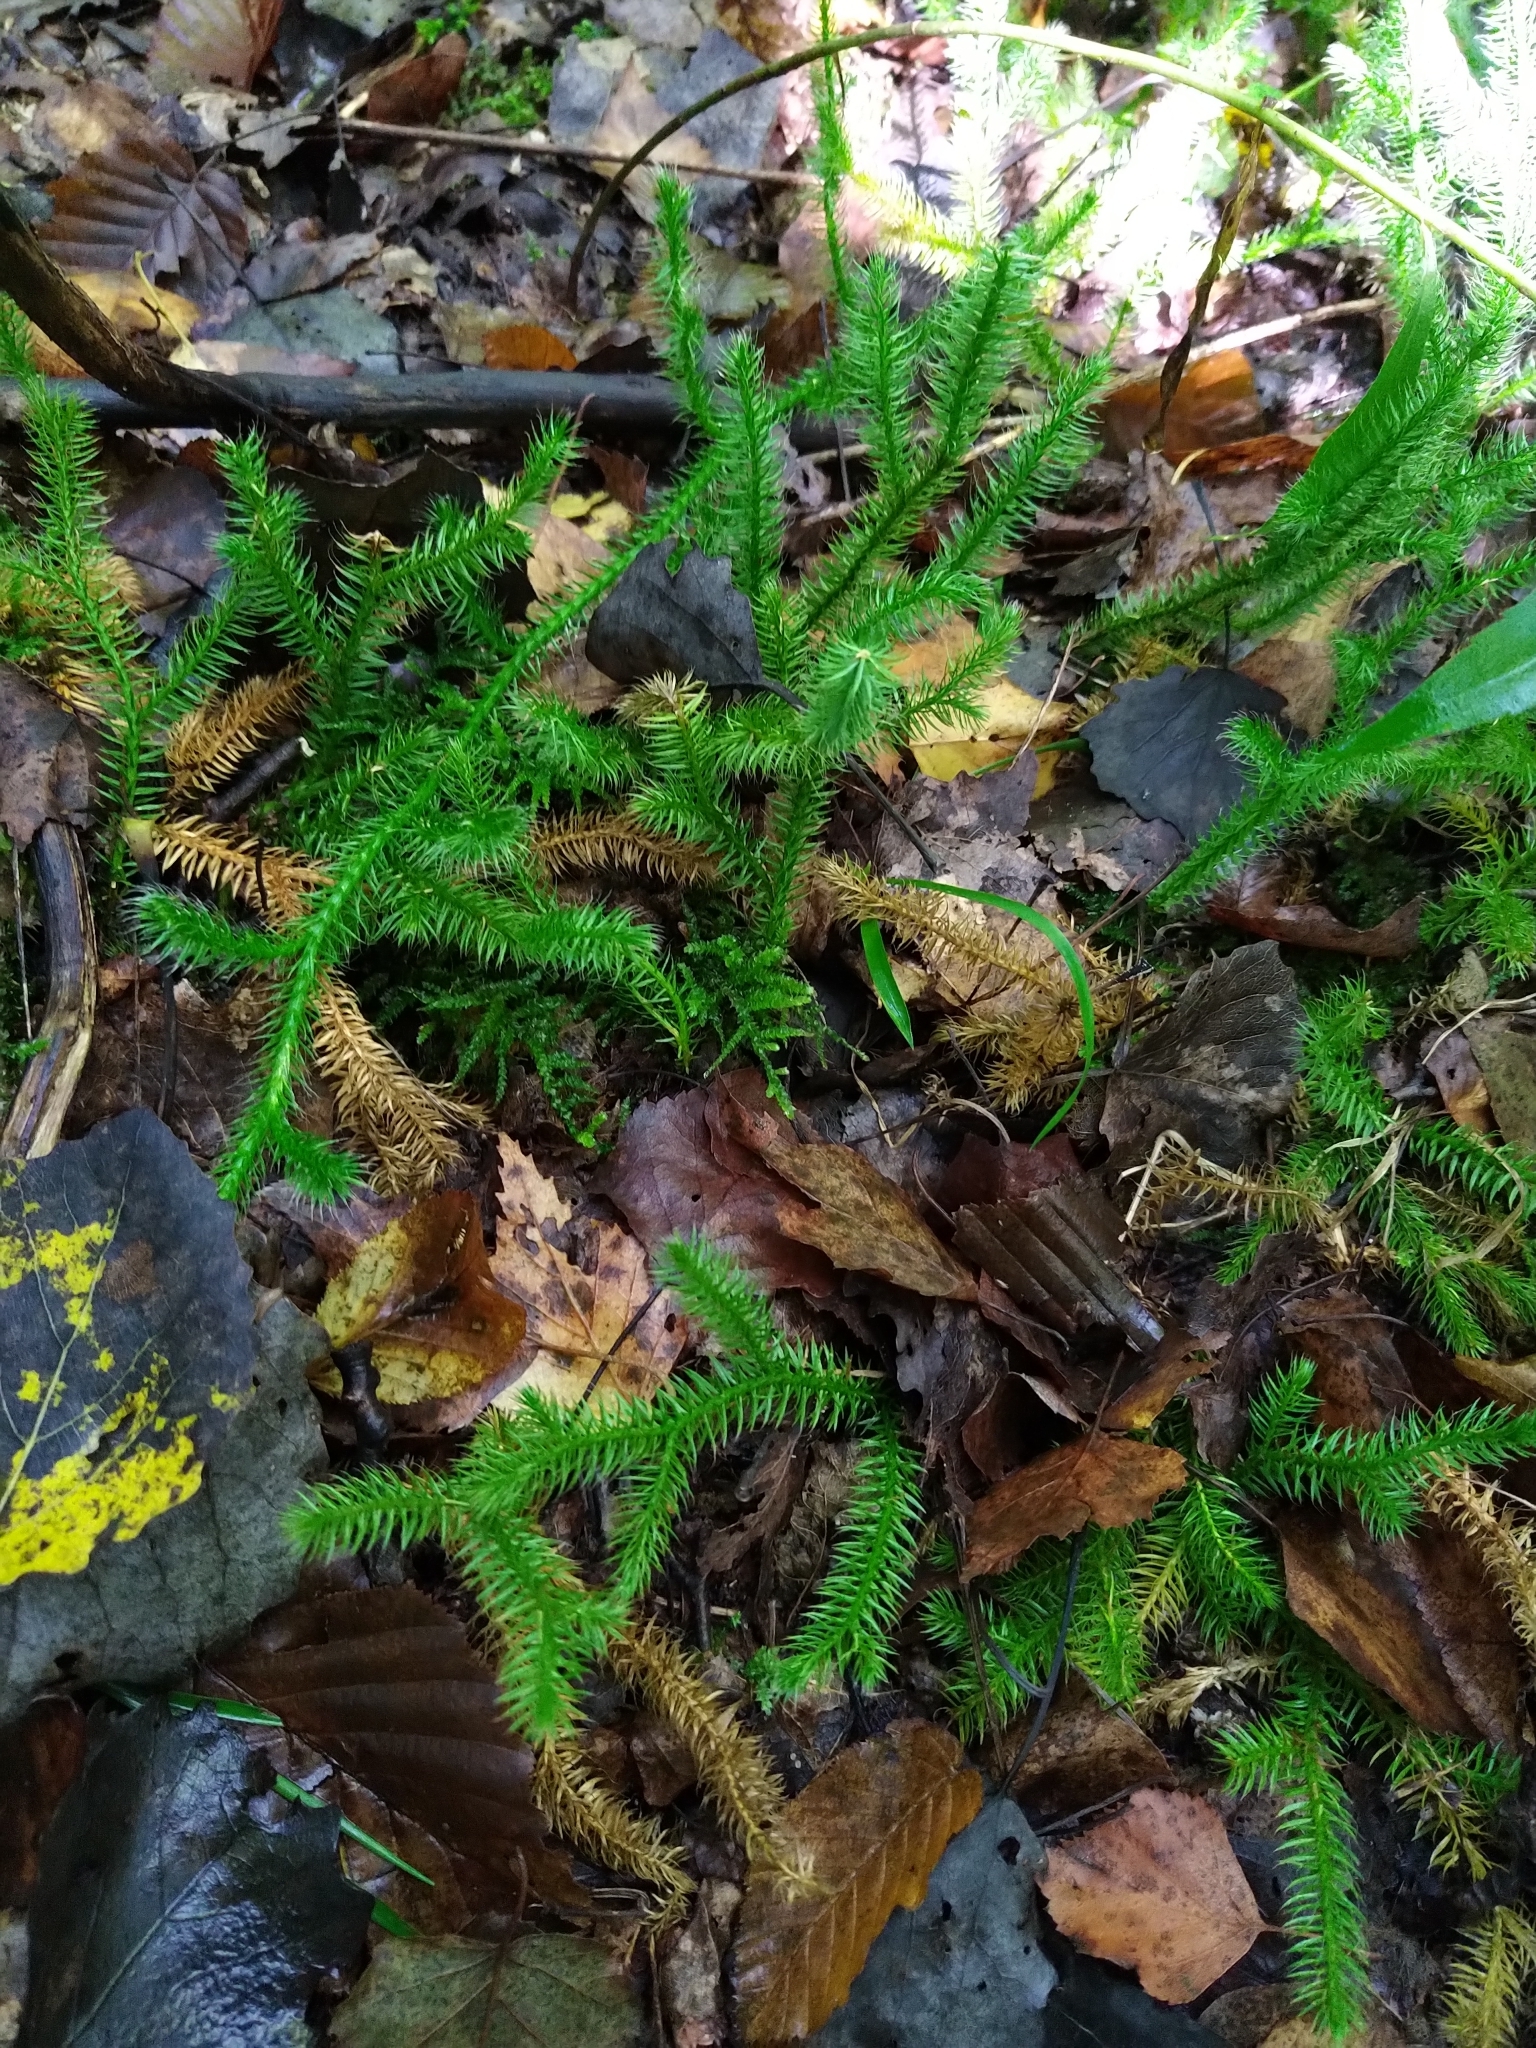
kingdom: Plantae
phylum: Tracheophyta
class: Lycopodiopsida
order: Lycopodiales
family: Lycopodiaceae
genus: Lycopodium
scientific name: Lycopodium clavatum
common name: Stag's-horn clubmoss
